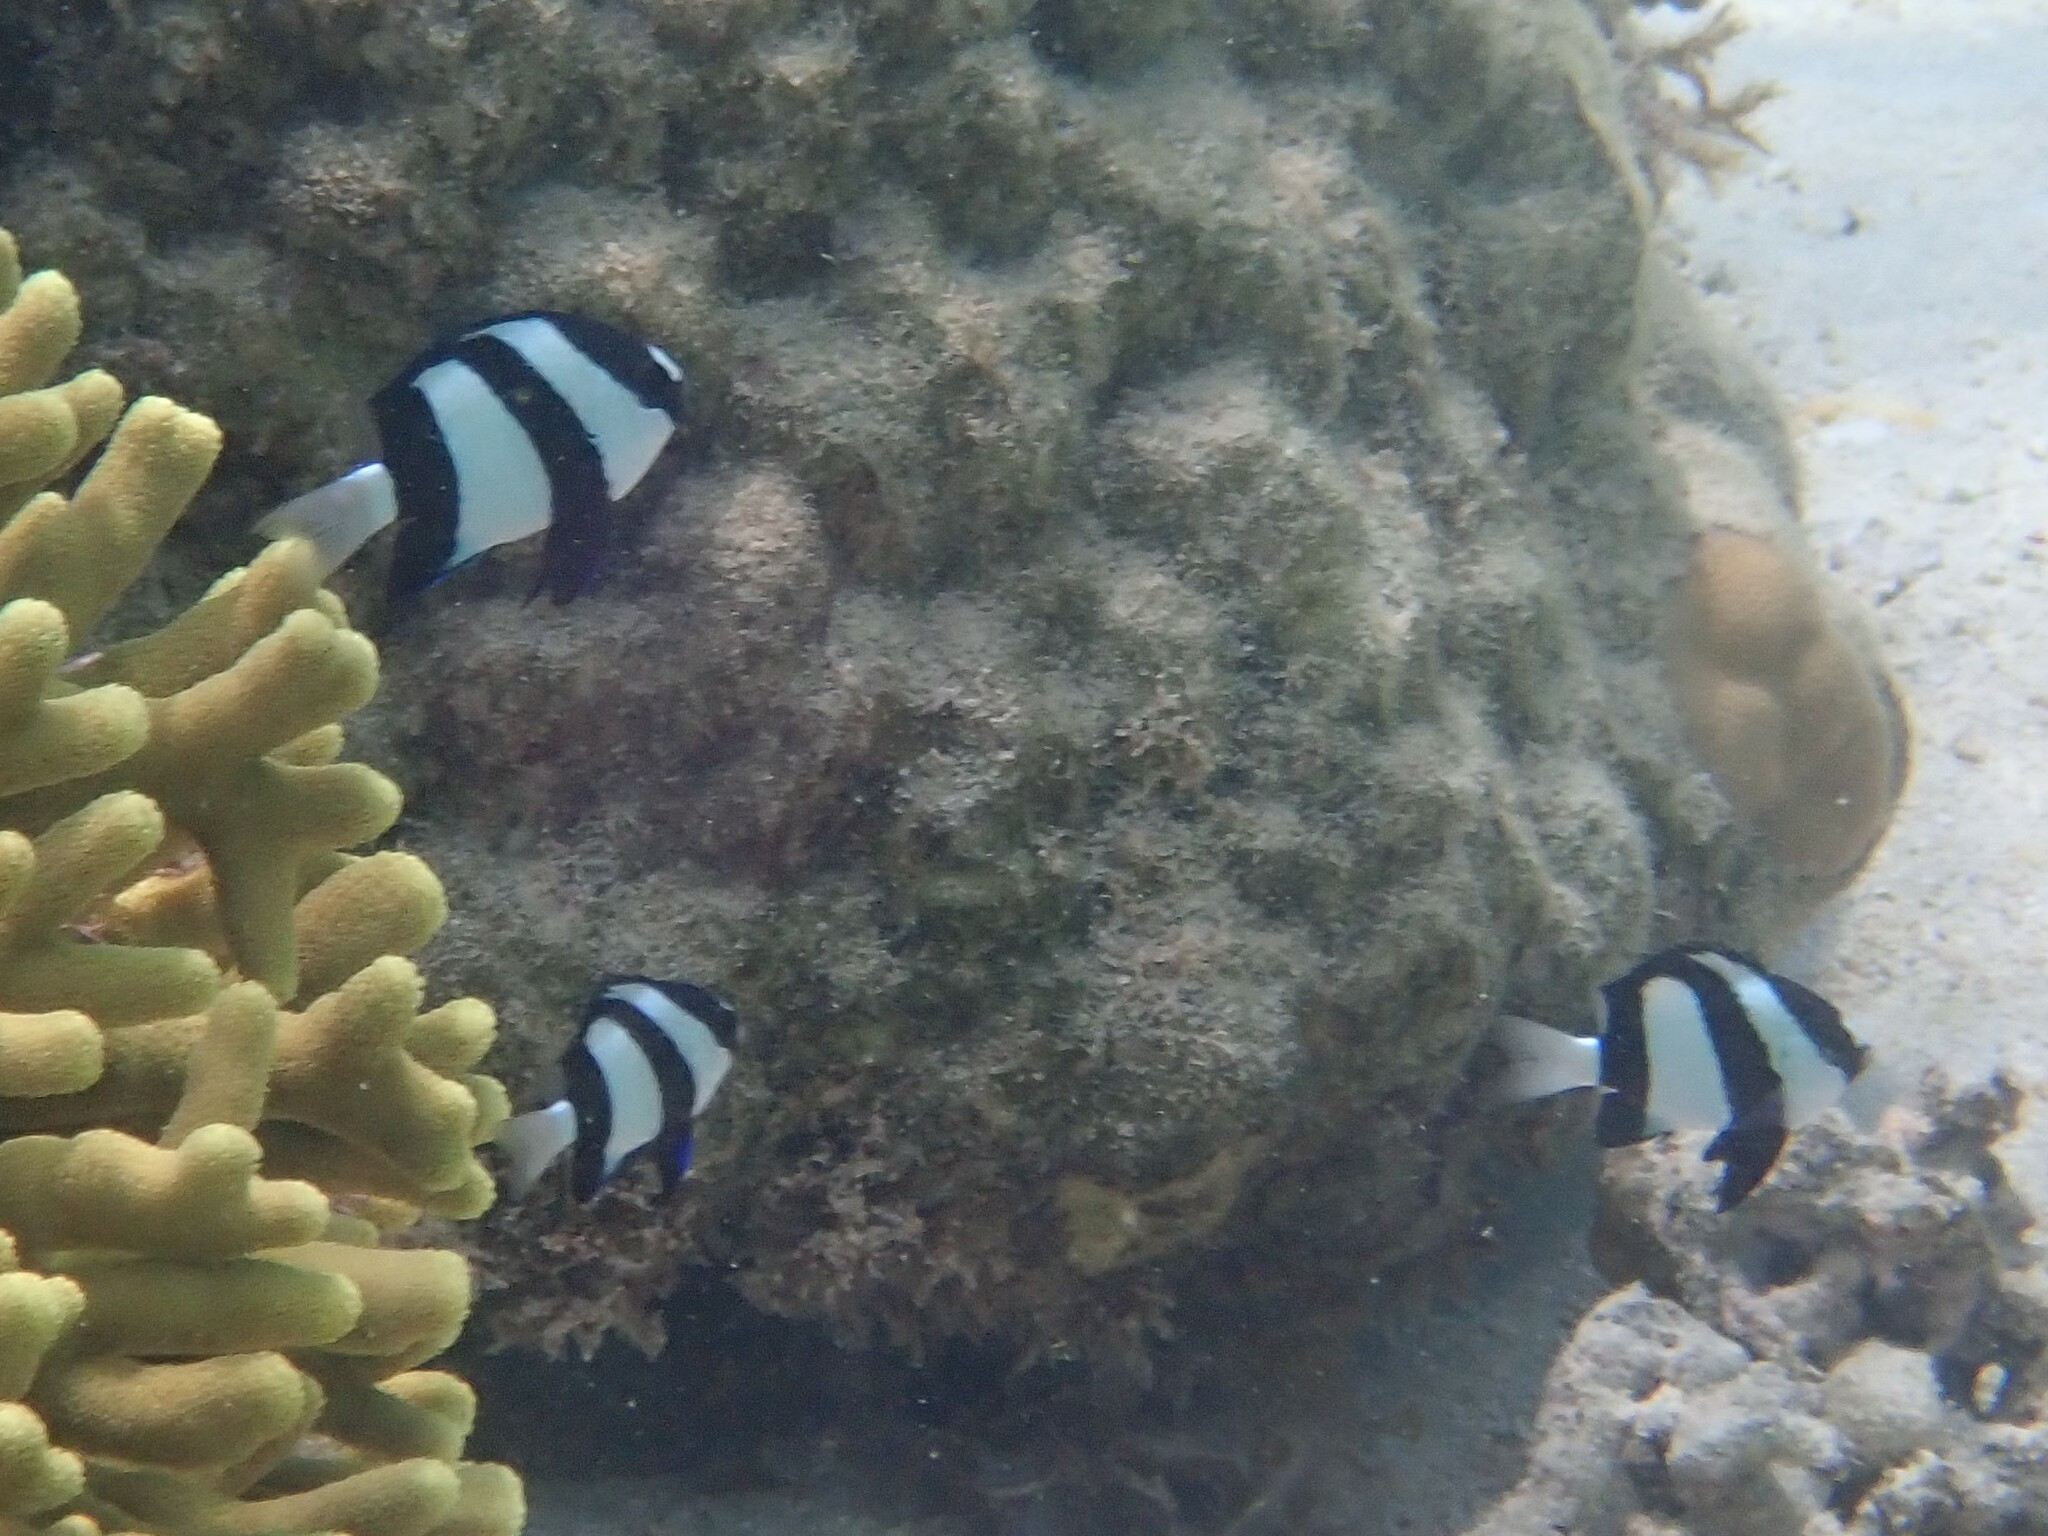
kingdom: Animalia
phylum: Chordata
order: Perciformes
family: Pomacentridae
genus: Dascyllus
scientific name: Dascyllus aruanus
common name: Humbug dascyllus
